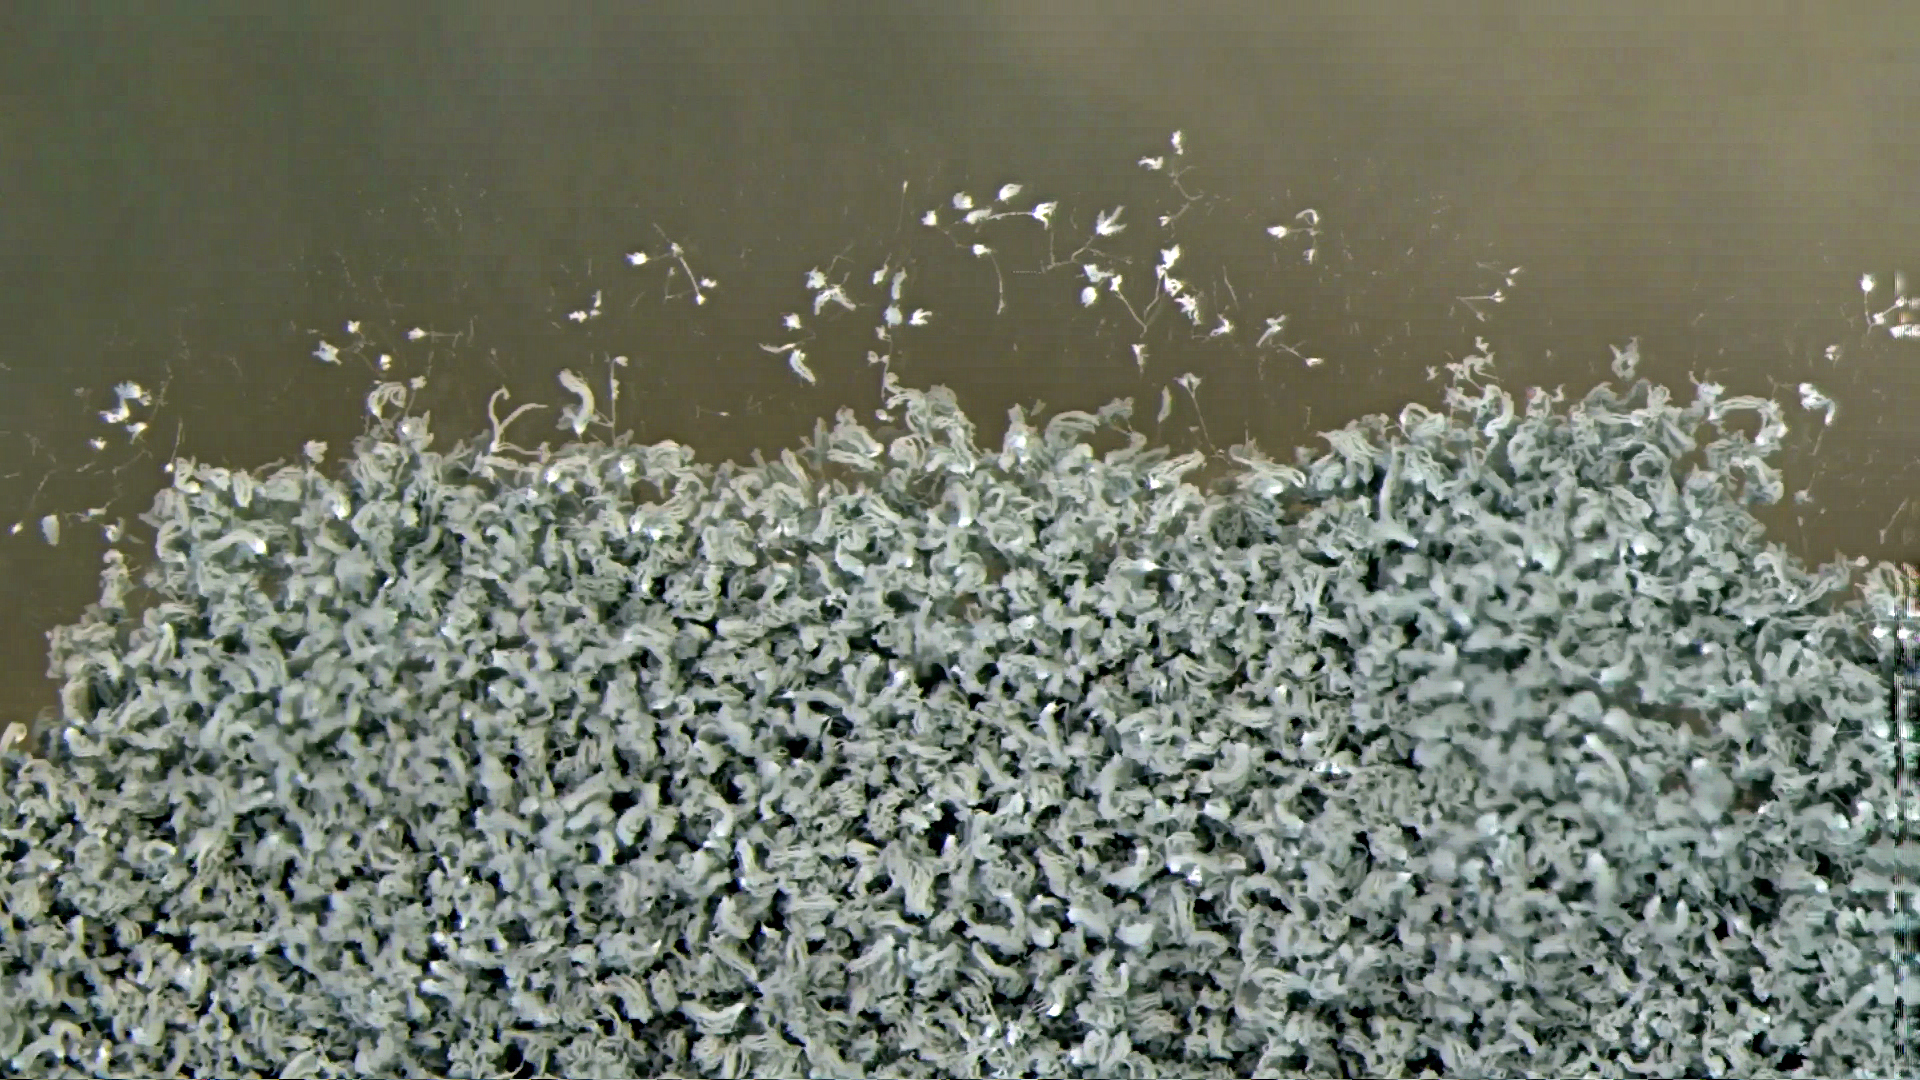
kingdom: Fungi
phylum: Ascomycota
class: Eurotiomycetes
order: Eurotiales
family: Aspergillaceae
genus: Penicillium
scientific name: Penicillium brevicompactum
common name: Rollrim mould
